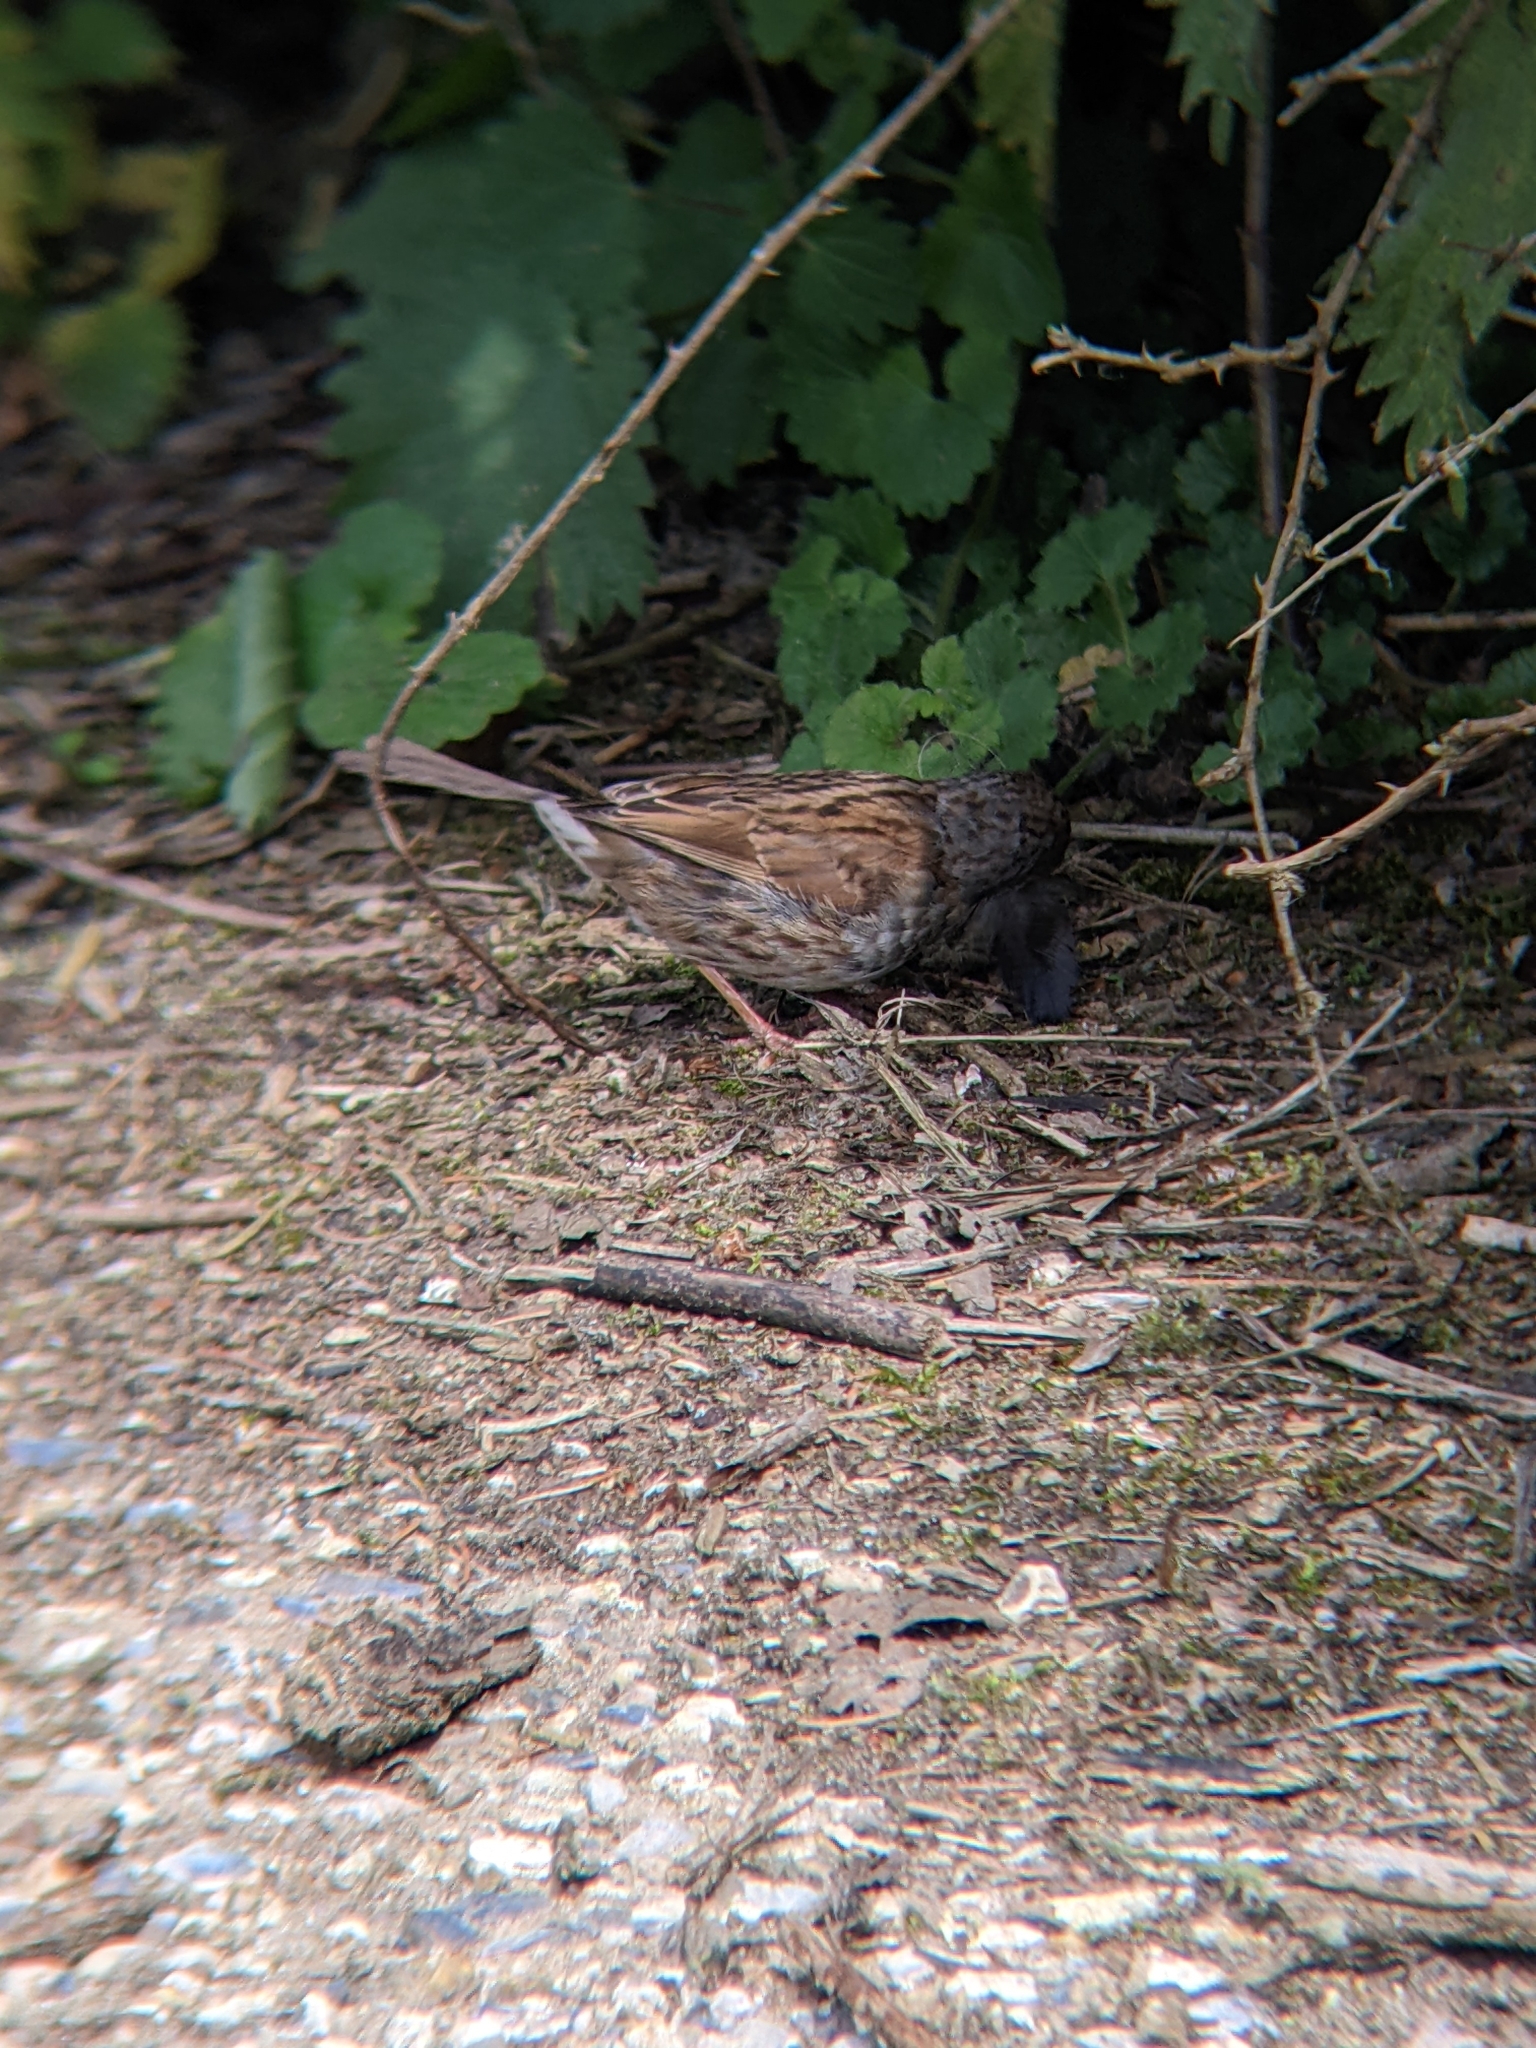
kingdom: Animalia
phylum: Chordata
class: Aves
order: Passeriformes
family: Prunellidae
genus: Prunella
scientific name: Prunella modularis
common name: Dunnock
